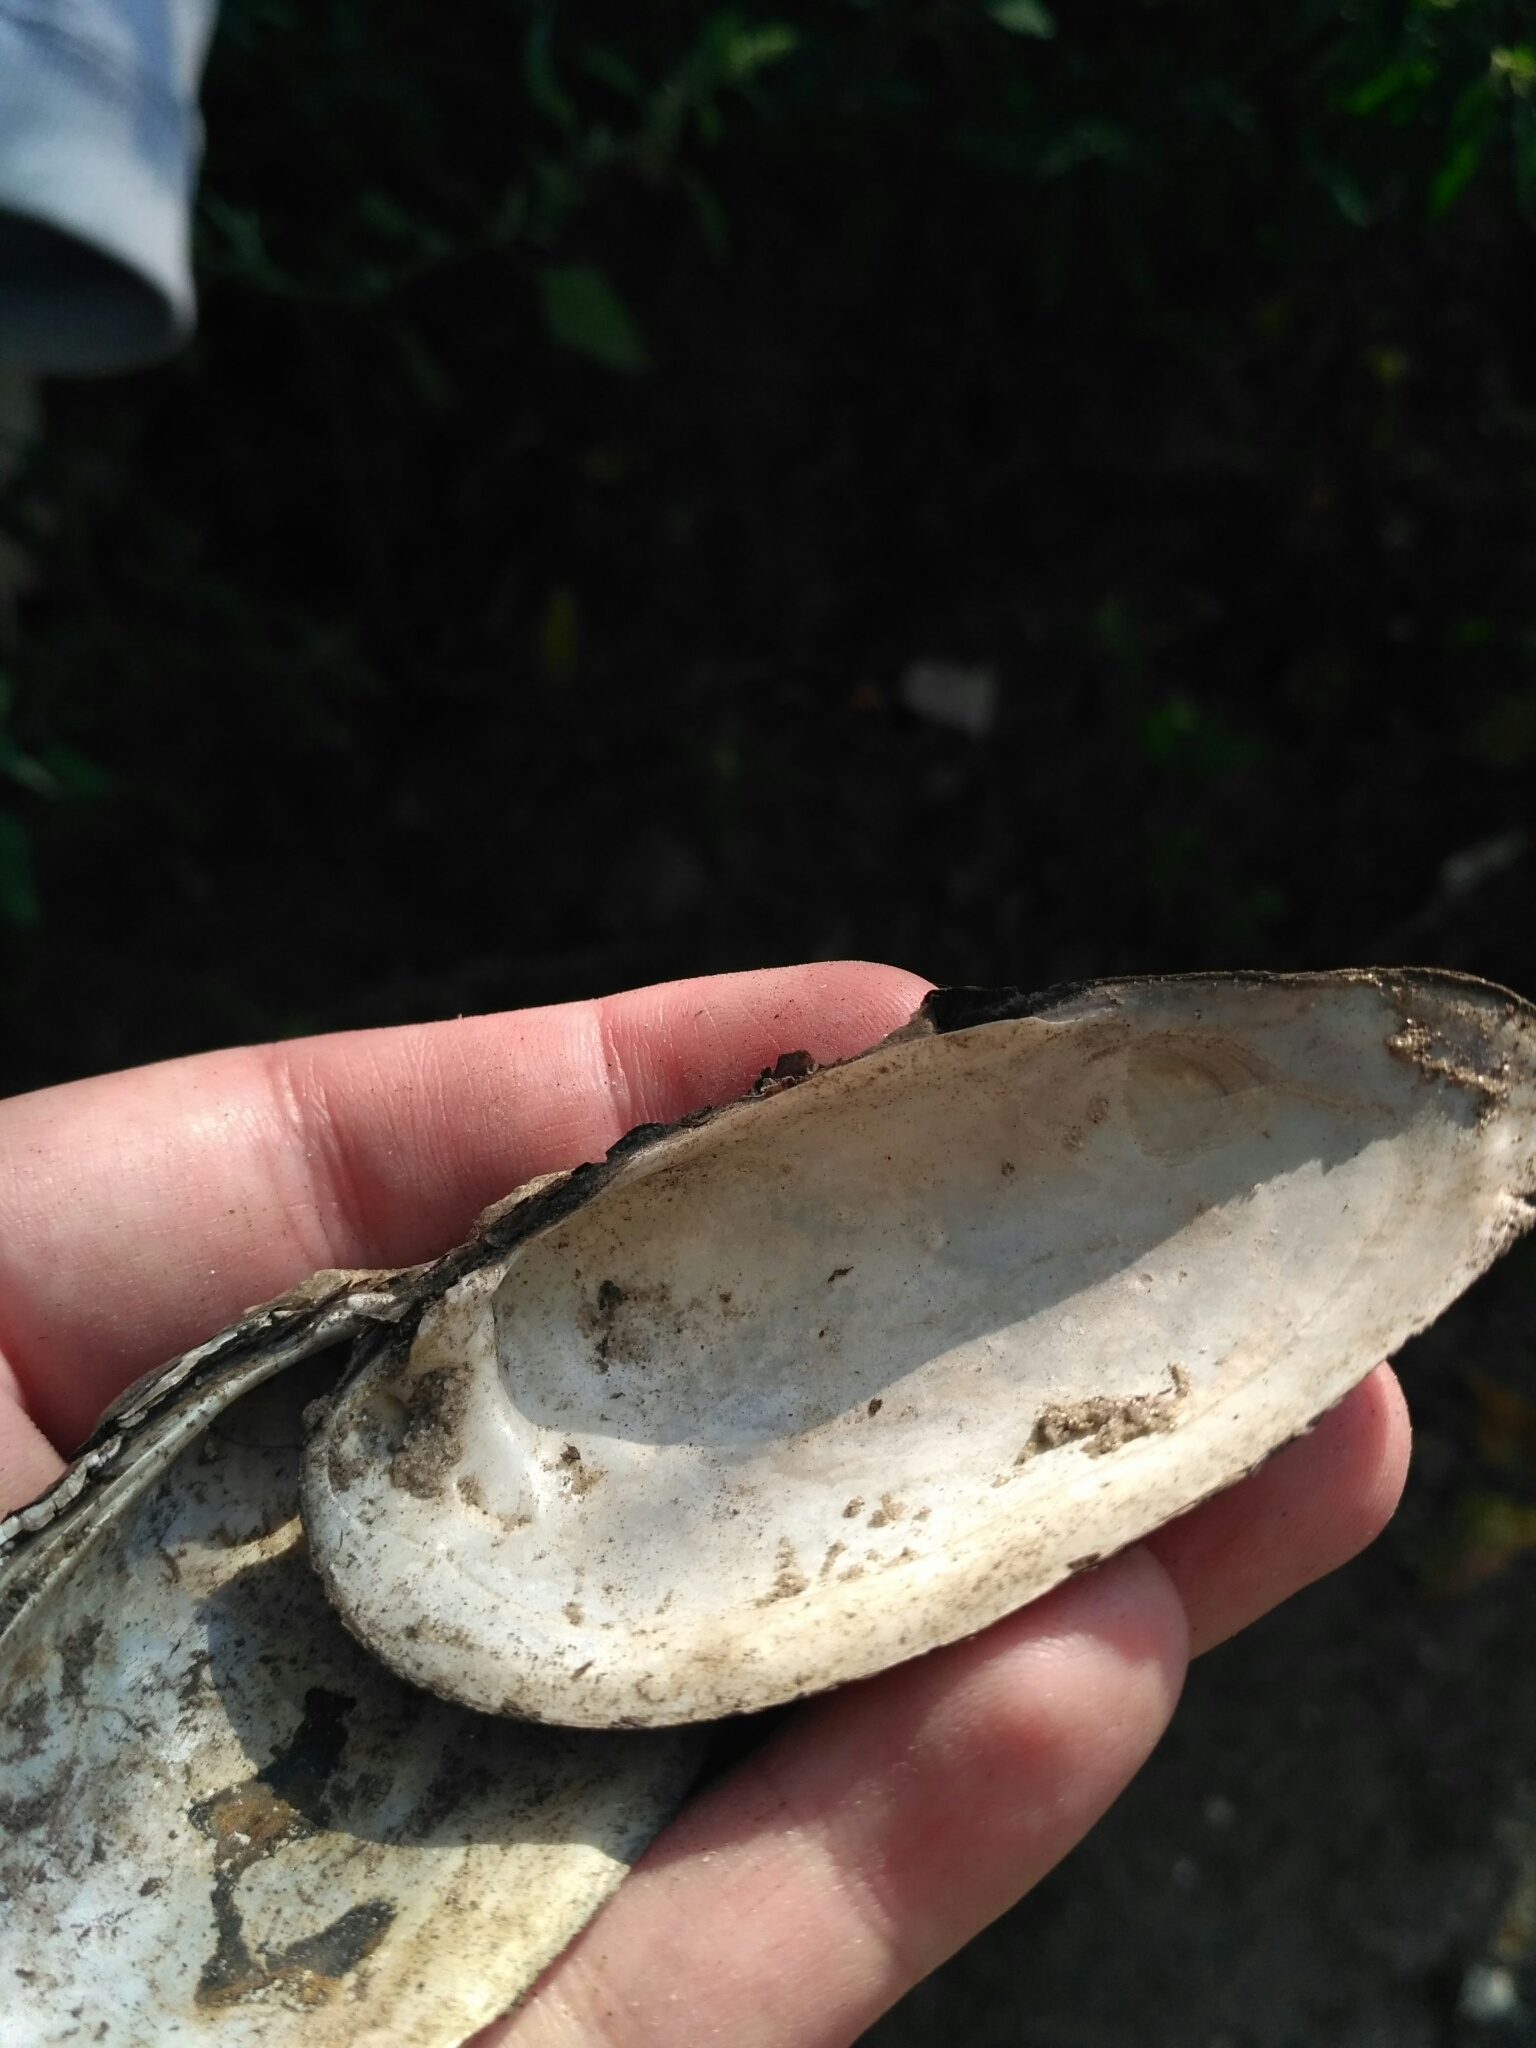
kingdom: Animalia
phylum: Mollusca
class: Bivalvia
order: Unionida
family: Unionidae
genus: Unio
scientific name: Unio tumidus
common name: Swollen river mussel
